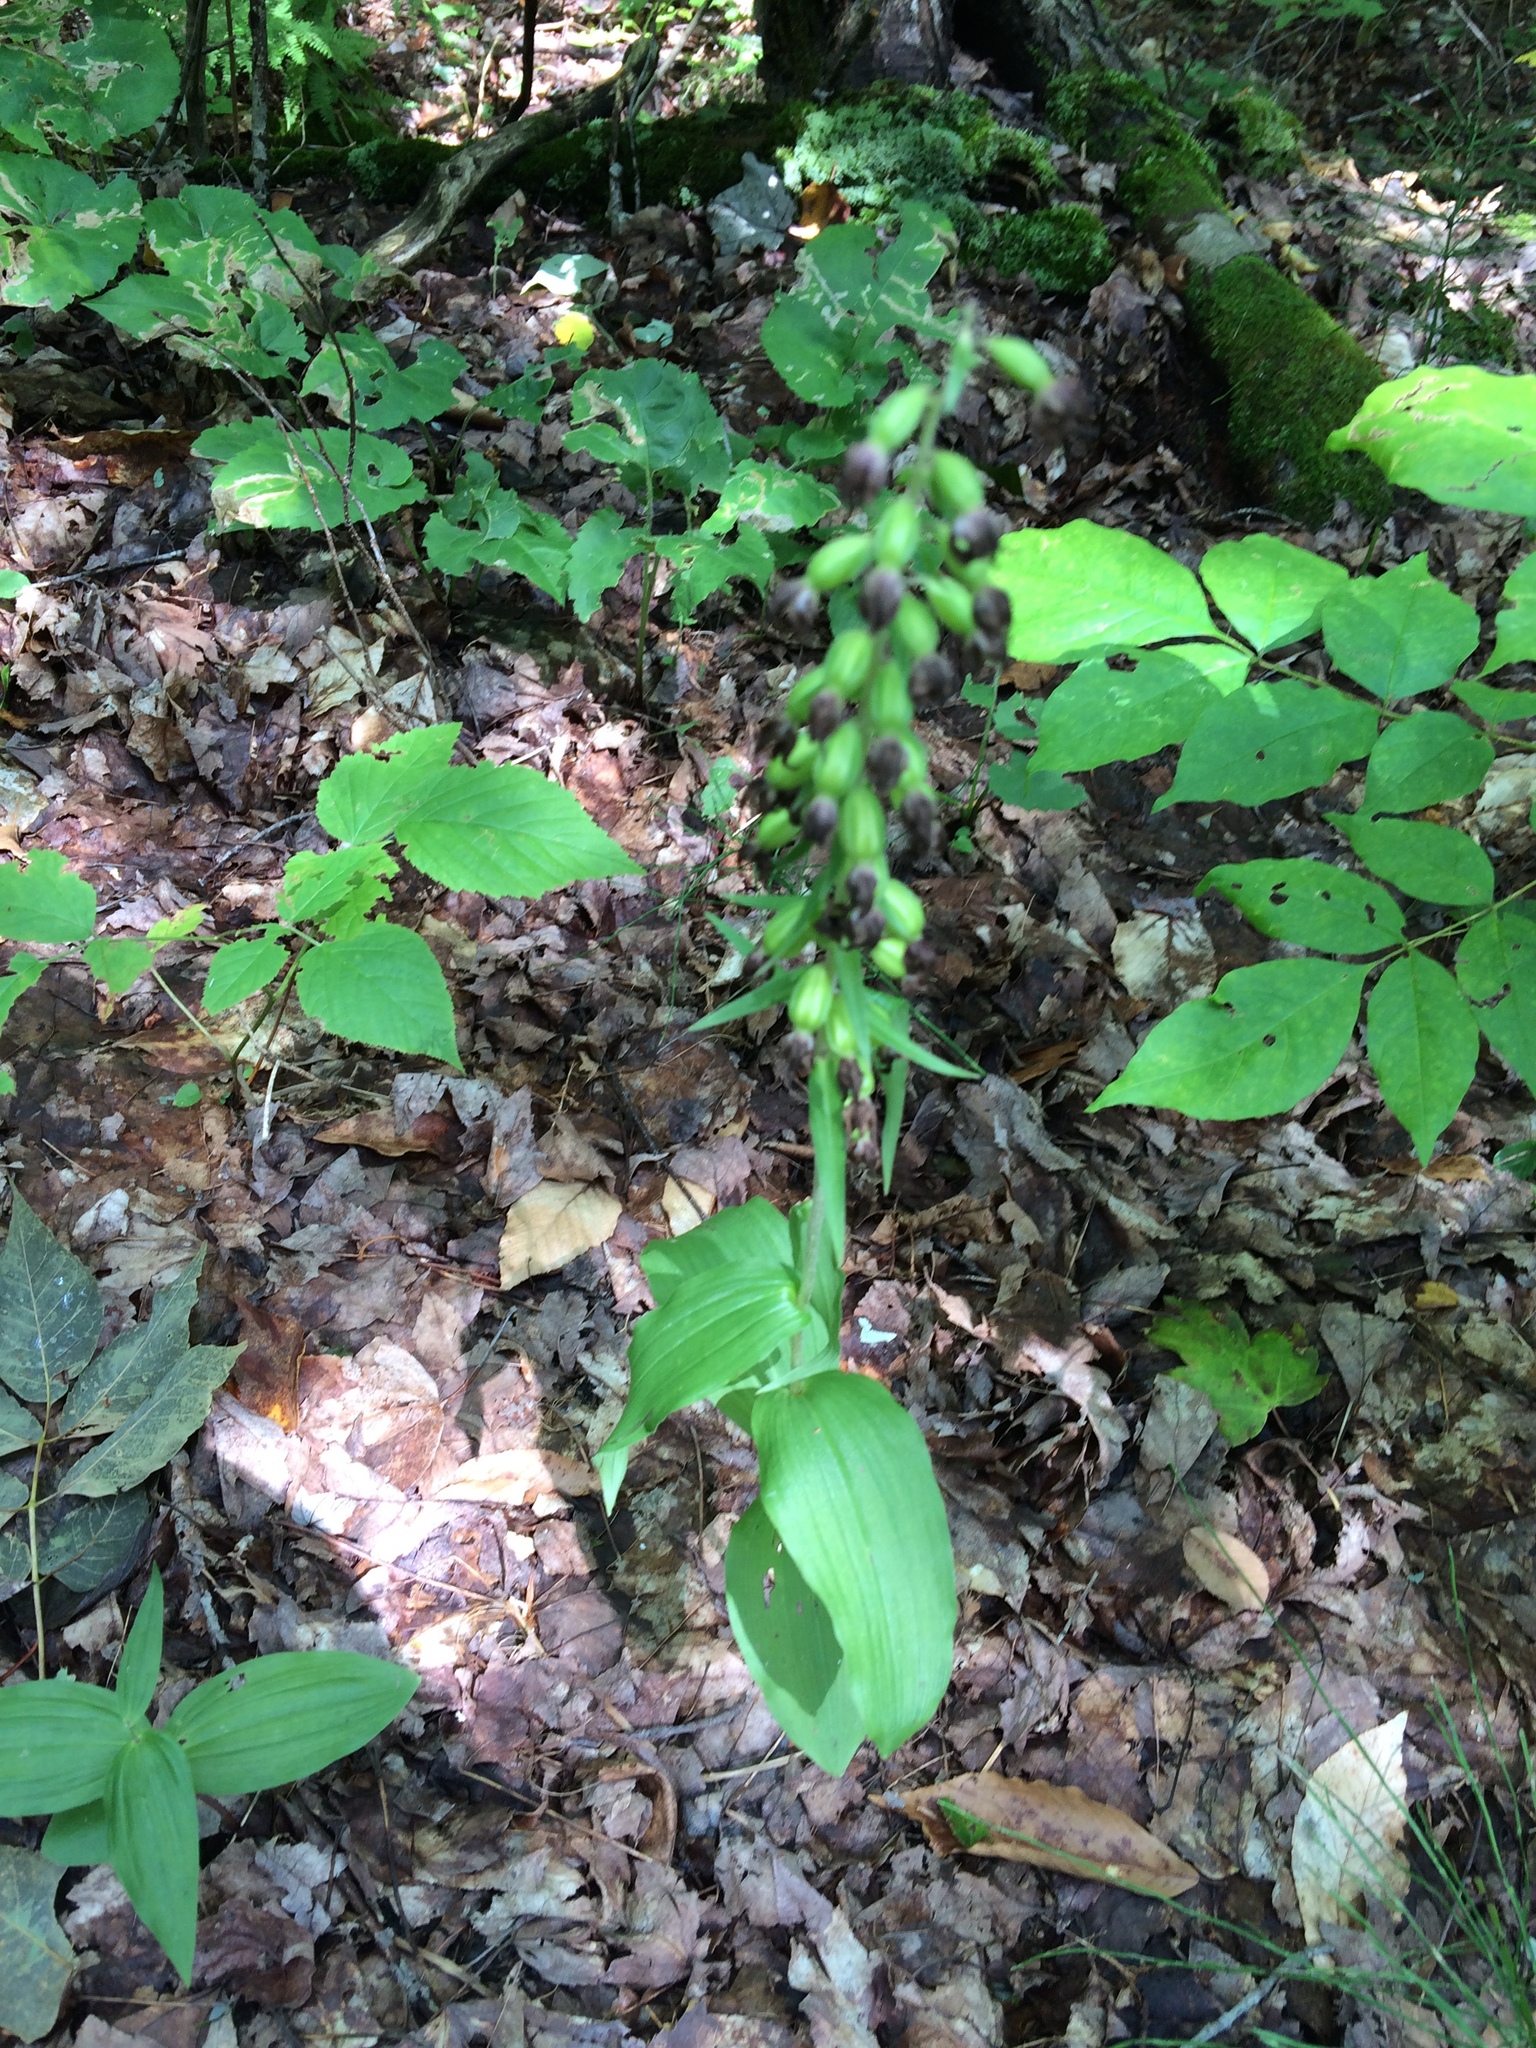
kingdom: Plantae
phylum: Tracheophyta
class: Liliopsida
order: Asparagales
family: Orchidaceae
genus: Epipactis
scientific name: Epipactis helleborine
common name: Broad-leaved helleborine
